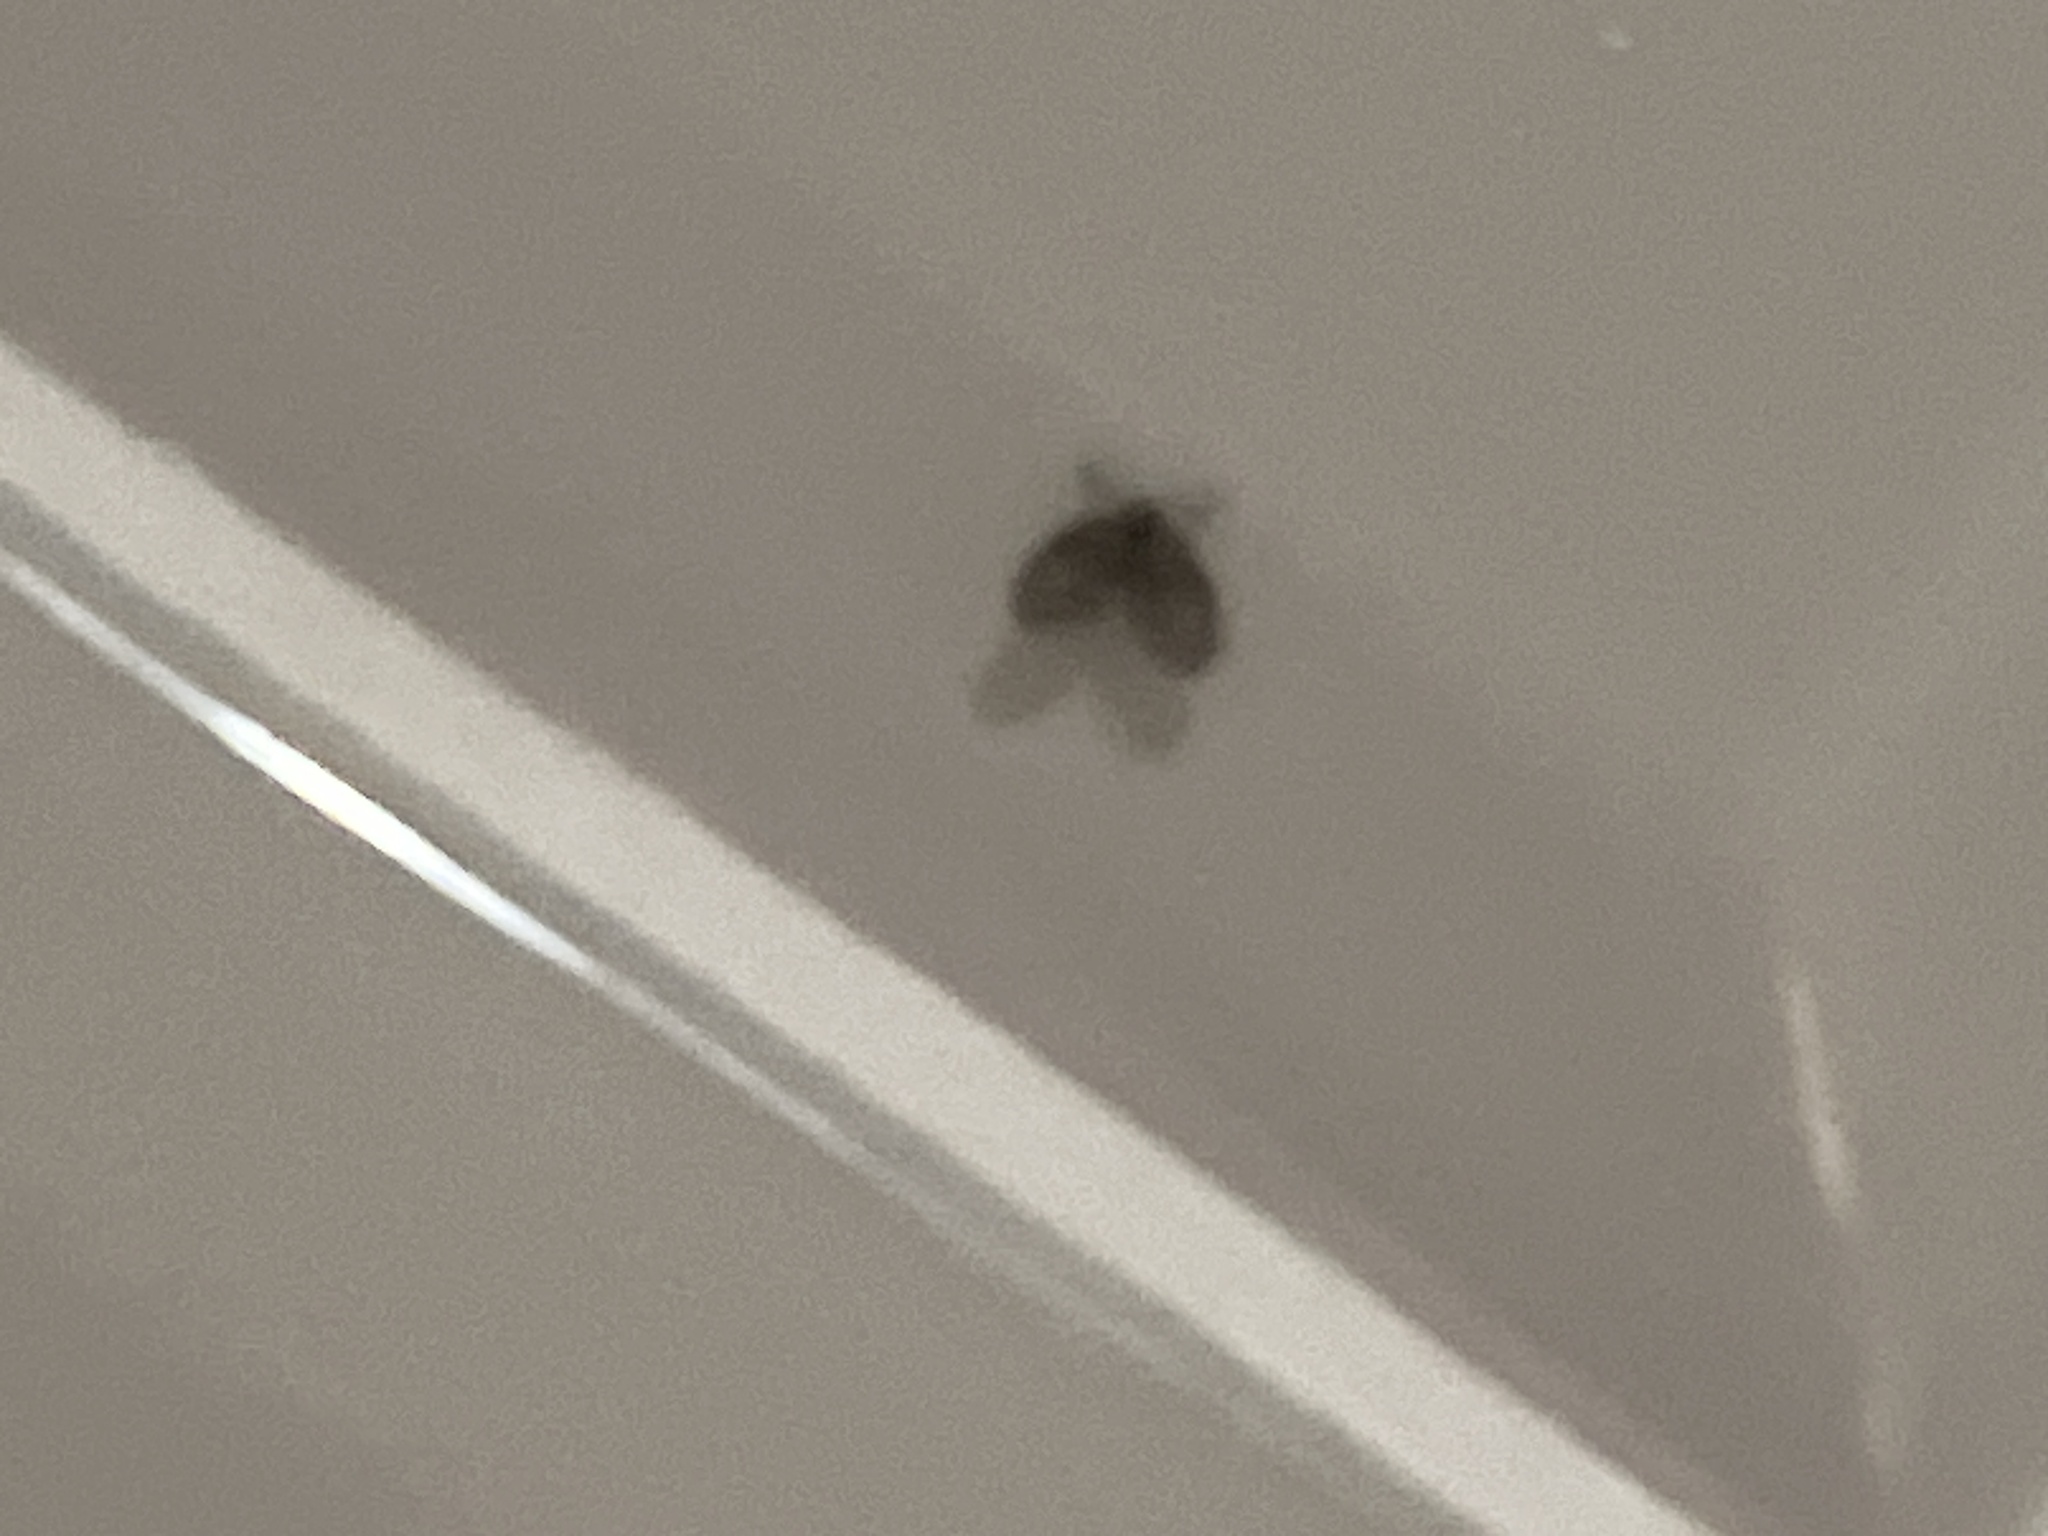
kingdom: Animalia
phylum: Arthropoda
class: Insecta
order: Diptera
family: Psychodidae
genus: Clogmia
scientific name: Clogmia albipunctatus
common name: White-spotted moth fly
